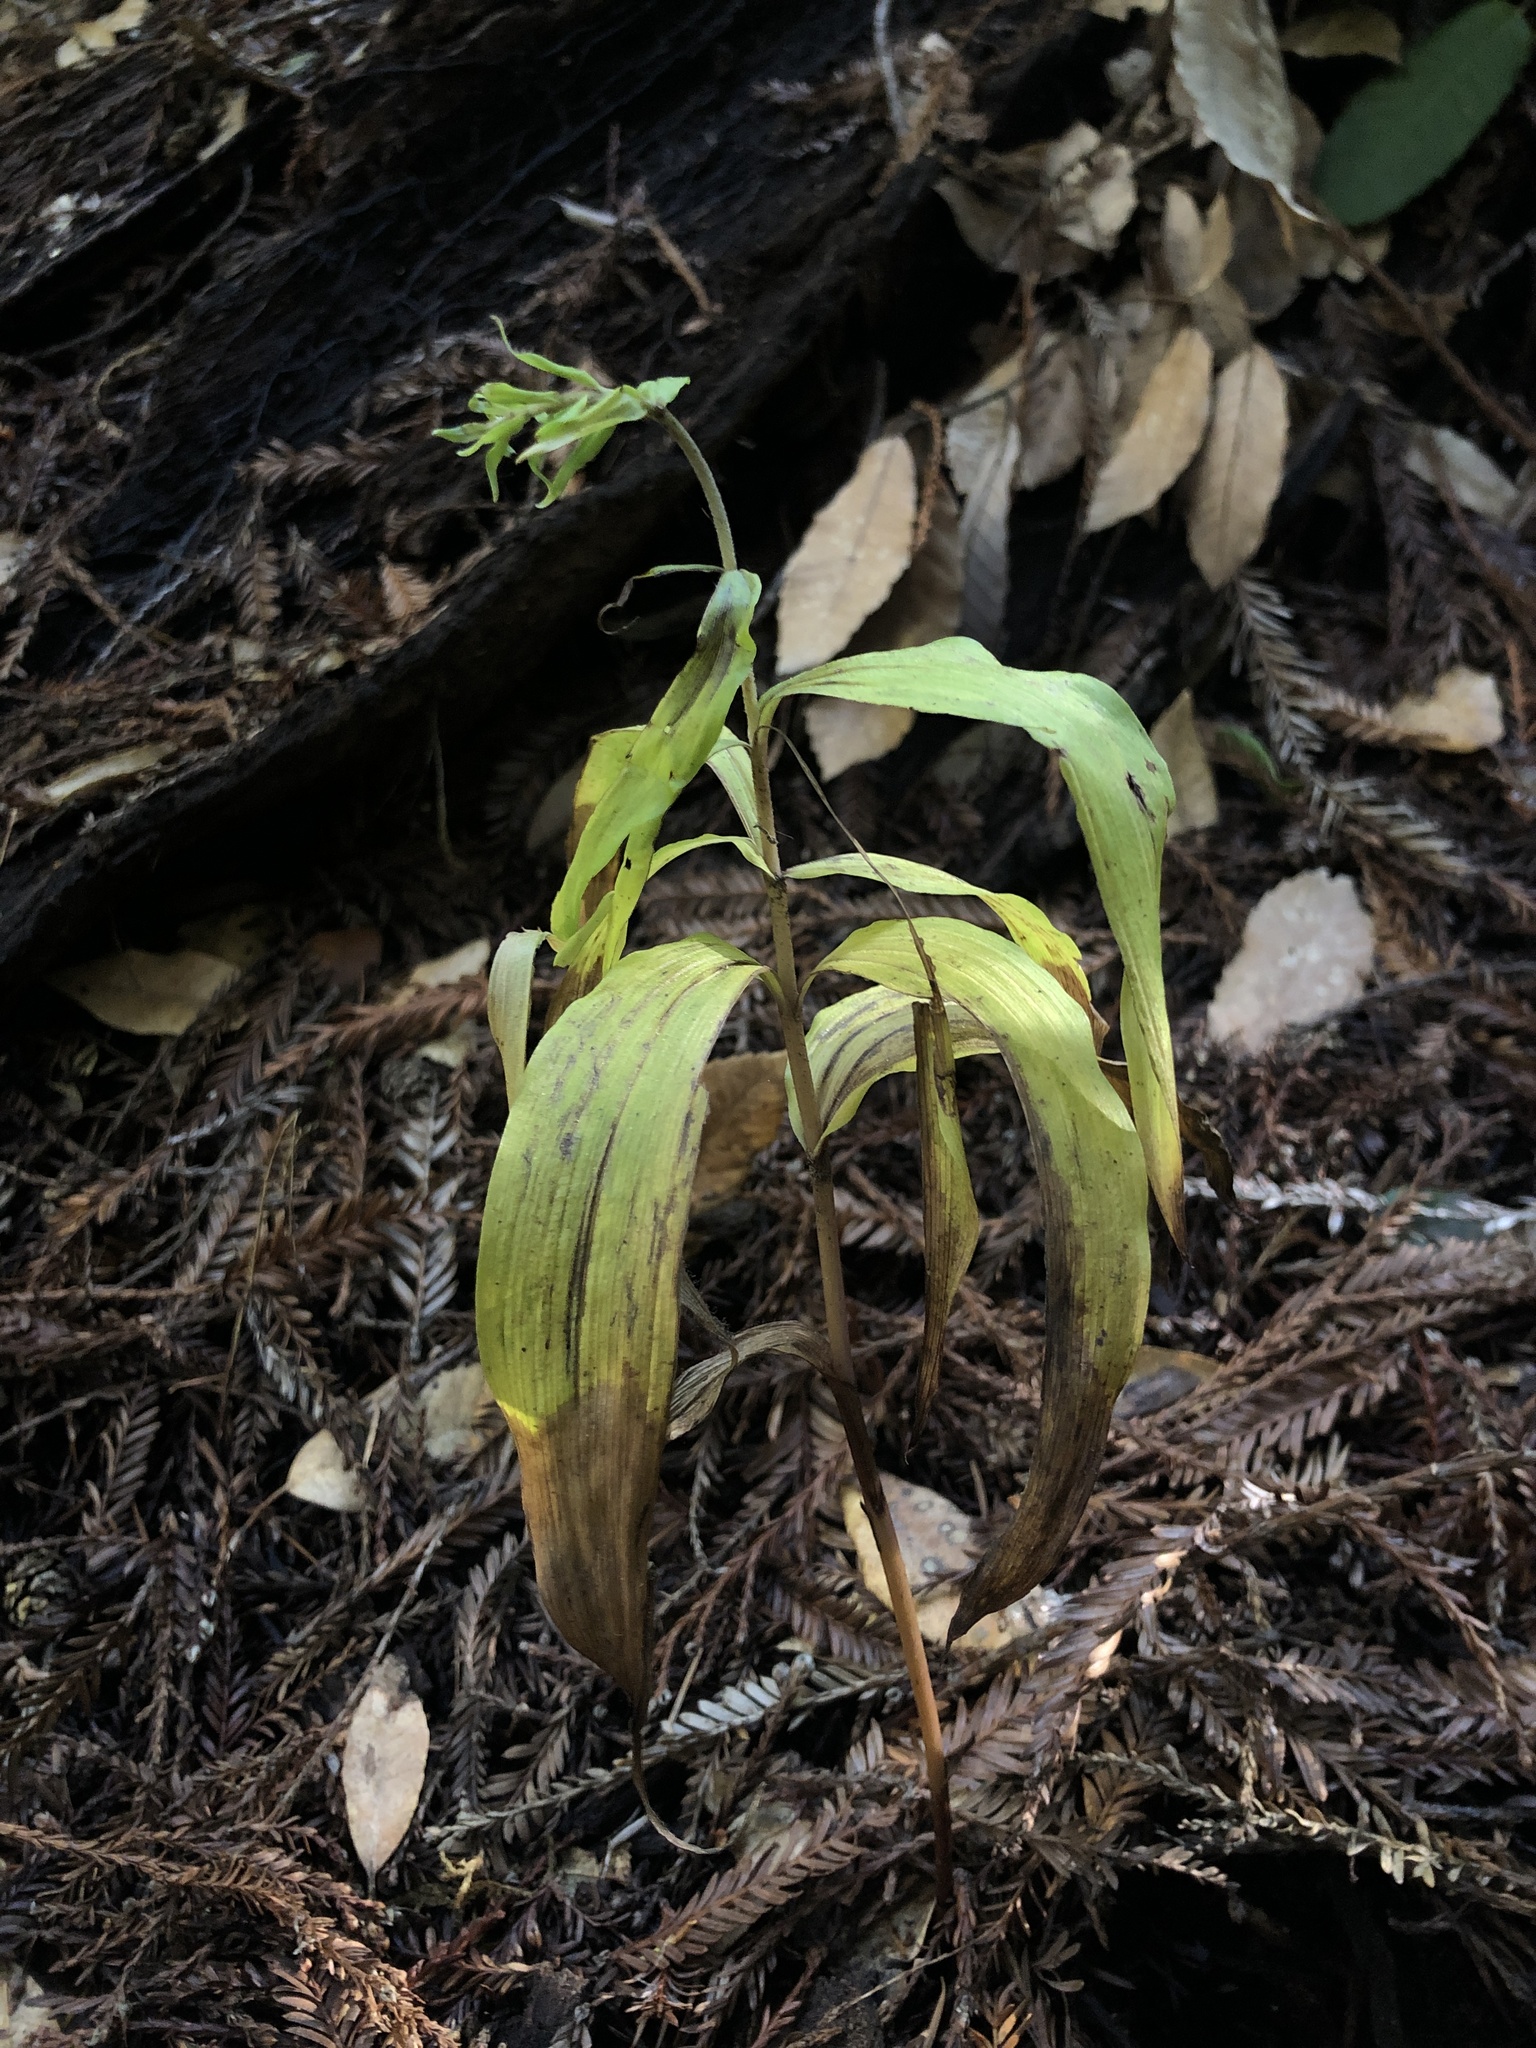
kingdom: Plantae
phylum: Tracheophyta
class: Liliopsida
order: Asparagales
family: Orchidaceae
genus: Epipactis
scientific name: Epipactis helleborine
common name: Broad-leaved helleborine
